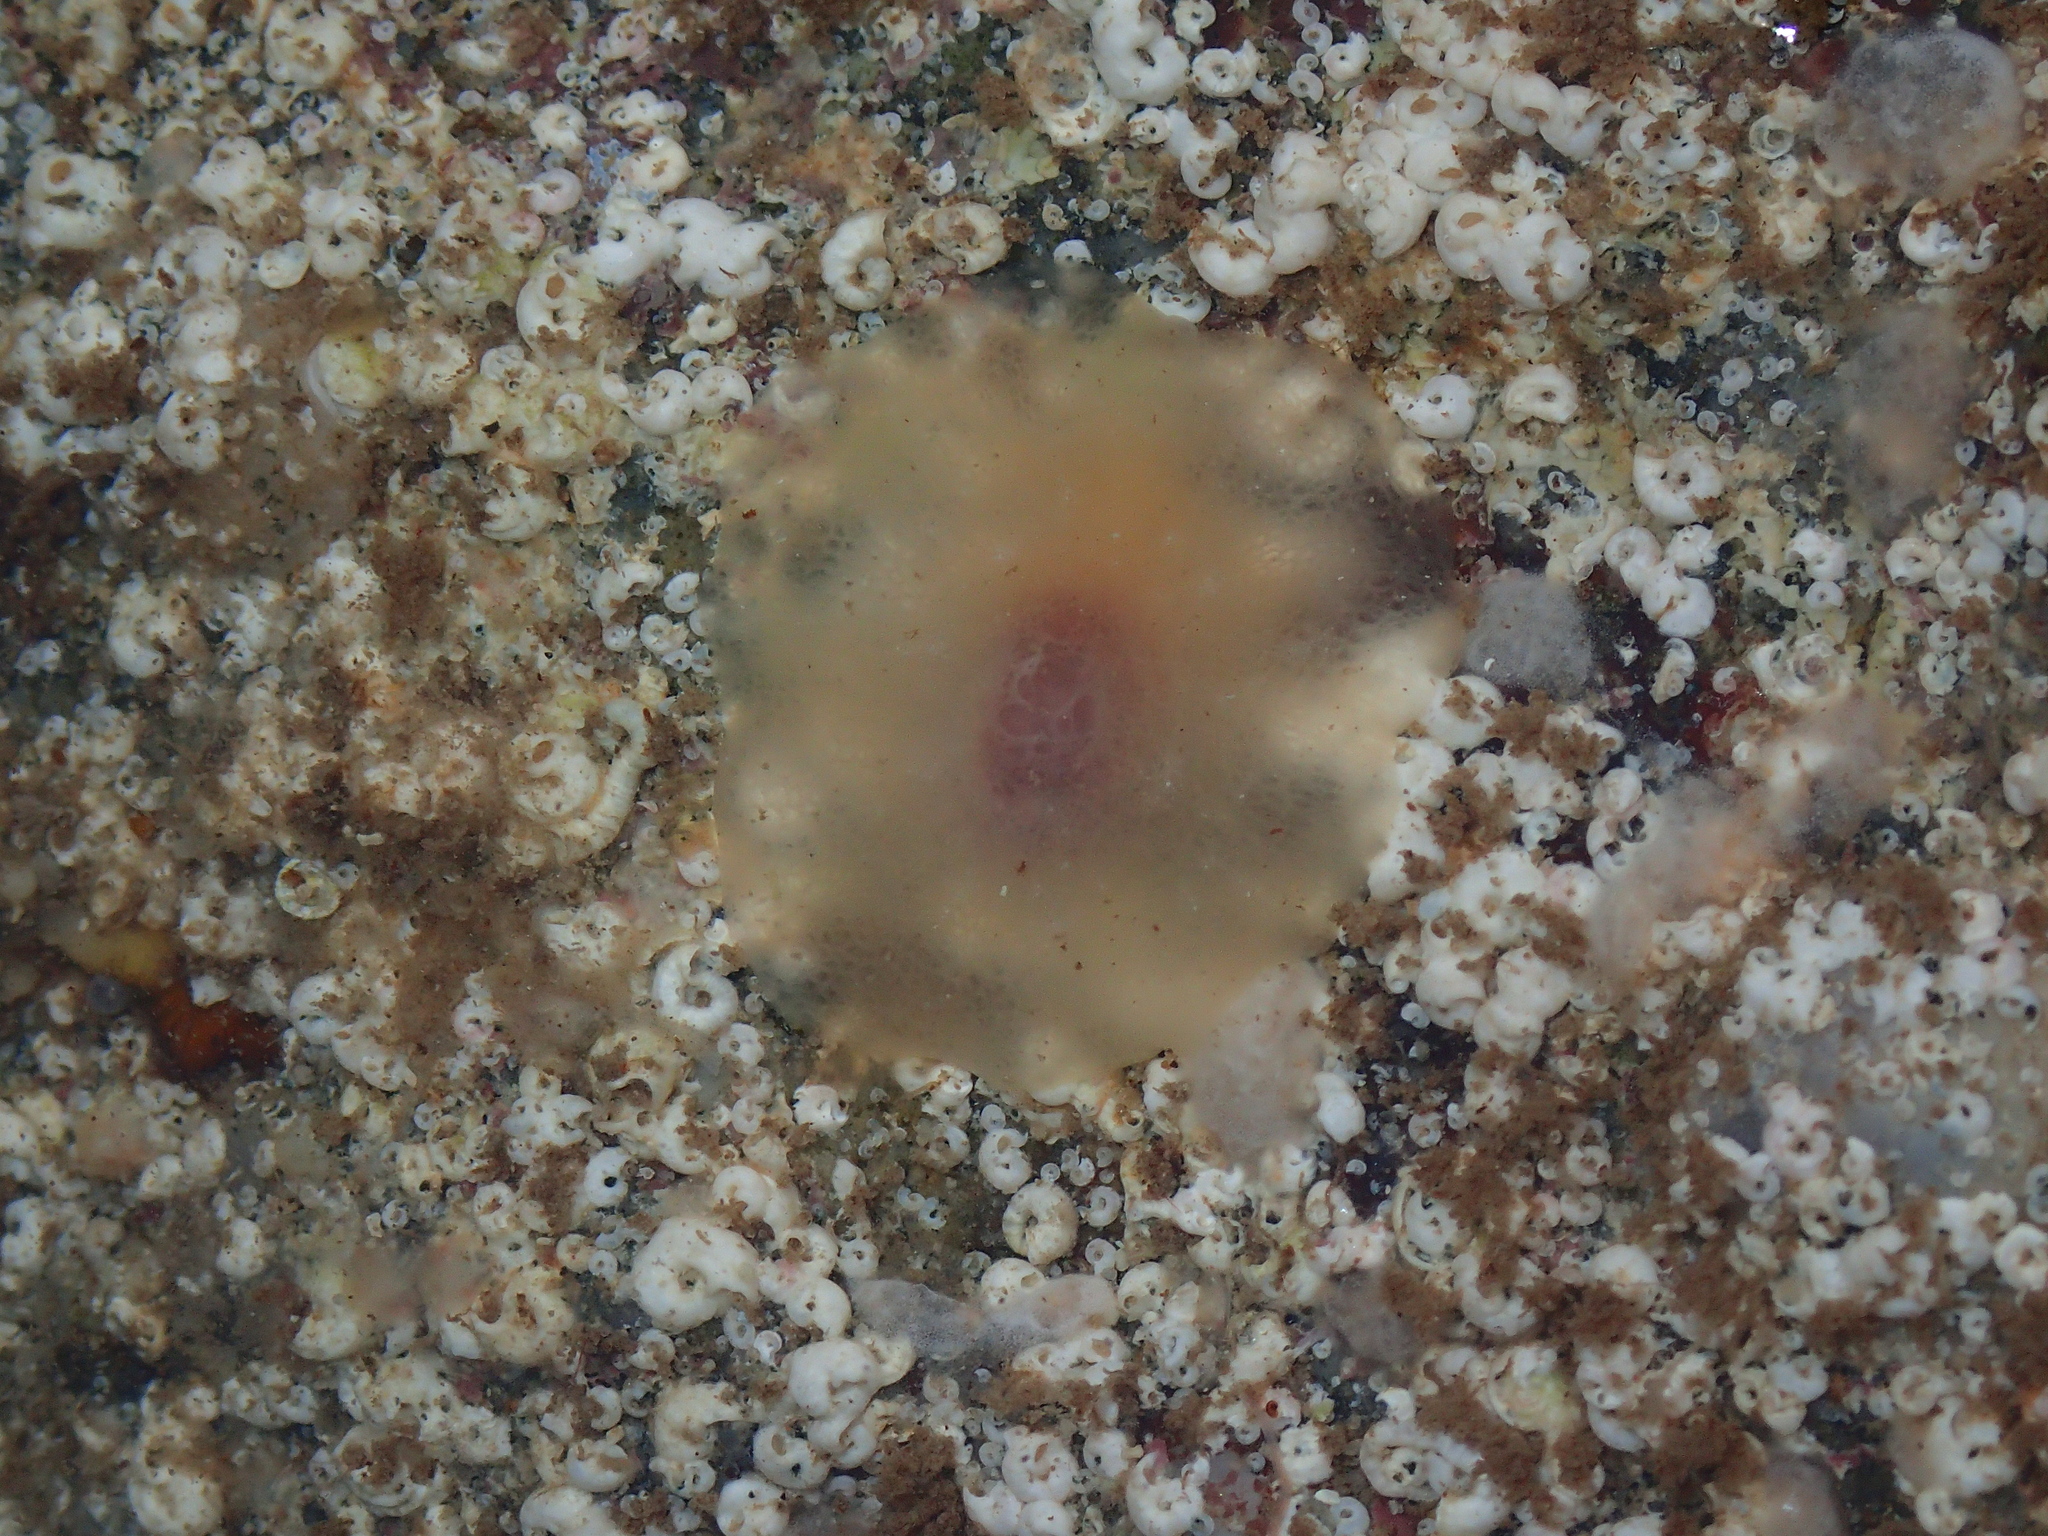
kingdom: Animalia
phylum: Mollusca
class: Gastropoda
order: Pleurobranchida
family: Pleurobranchidae
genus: Berthella
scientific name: Berthella plumula
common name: Yellow-plumed sea slug
